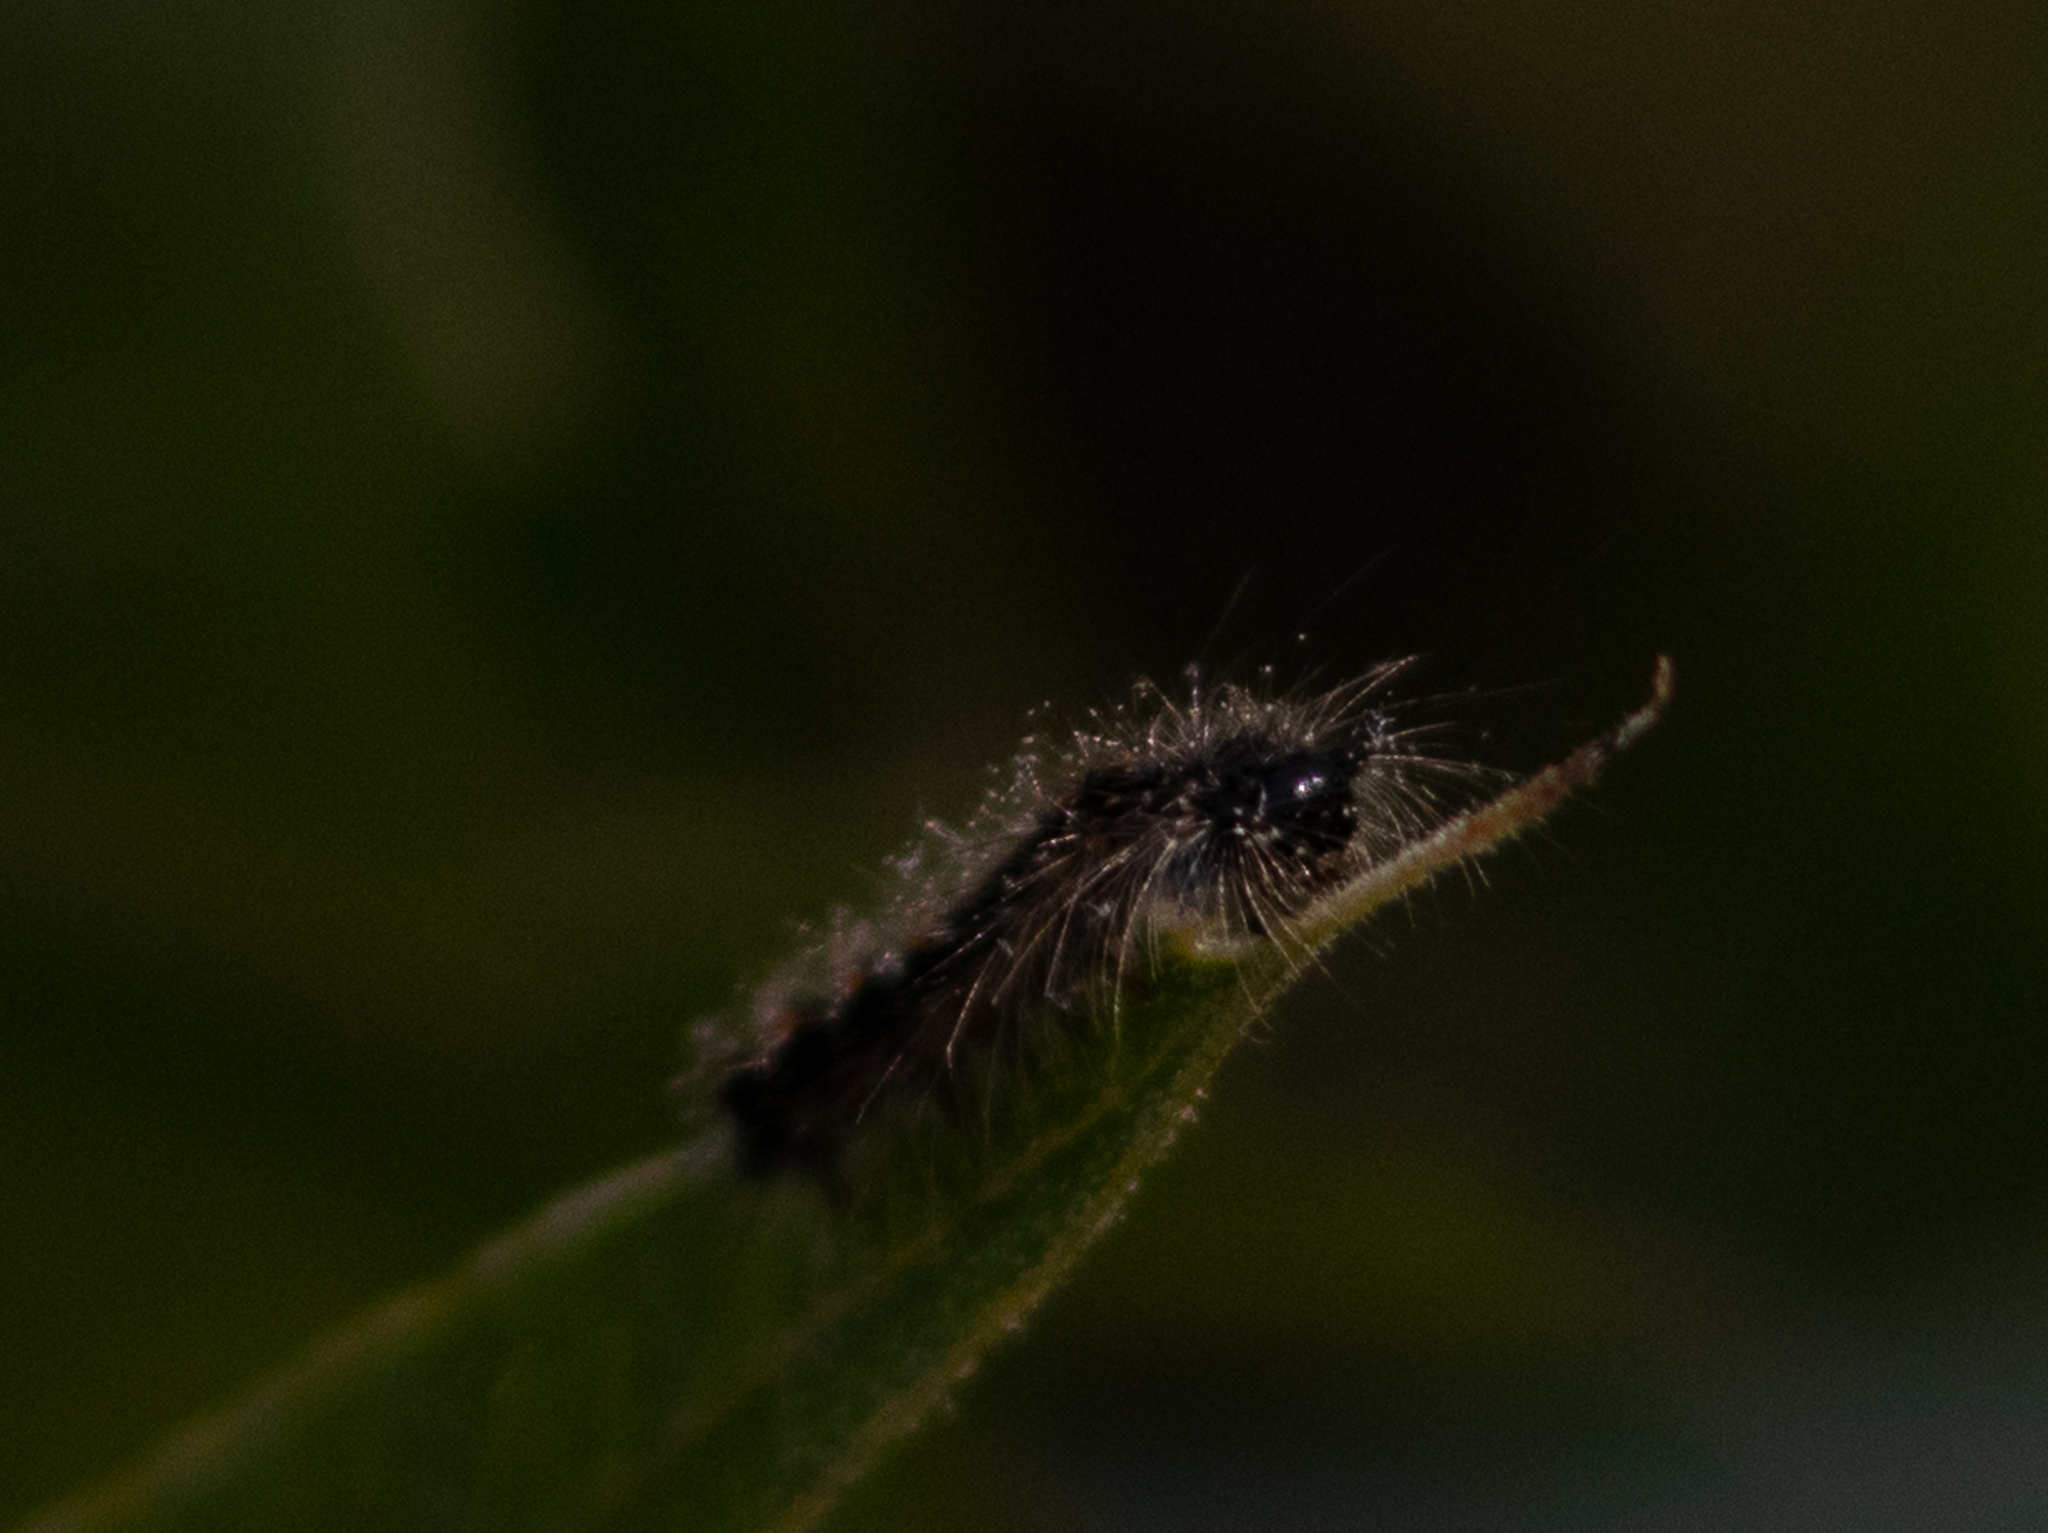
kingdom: Animalia
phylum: Arthropoda
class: Insecta
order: Lepidoptera
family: Erebidae
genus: Lymantria
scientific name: Lymantria dispar
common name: Gypsy moth
